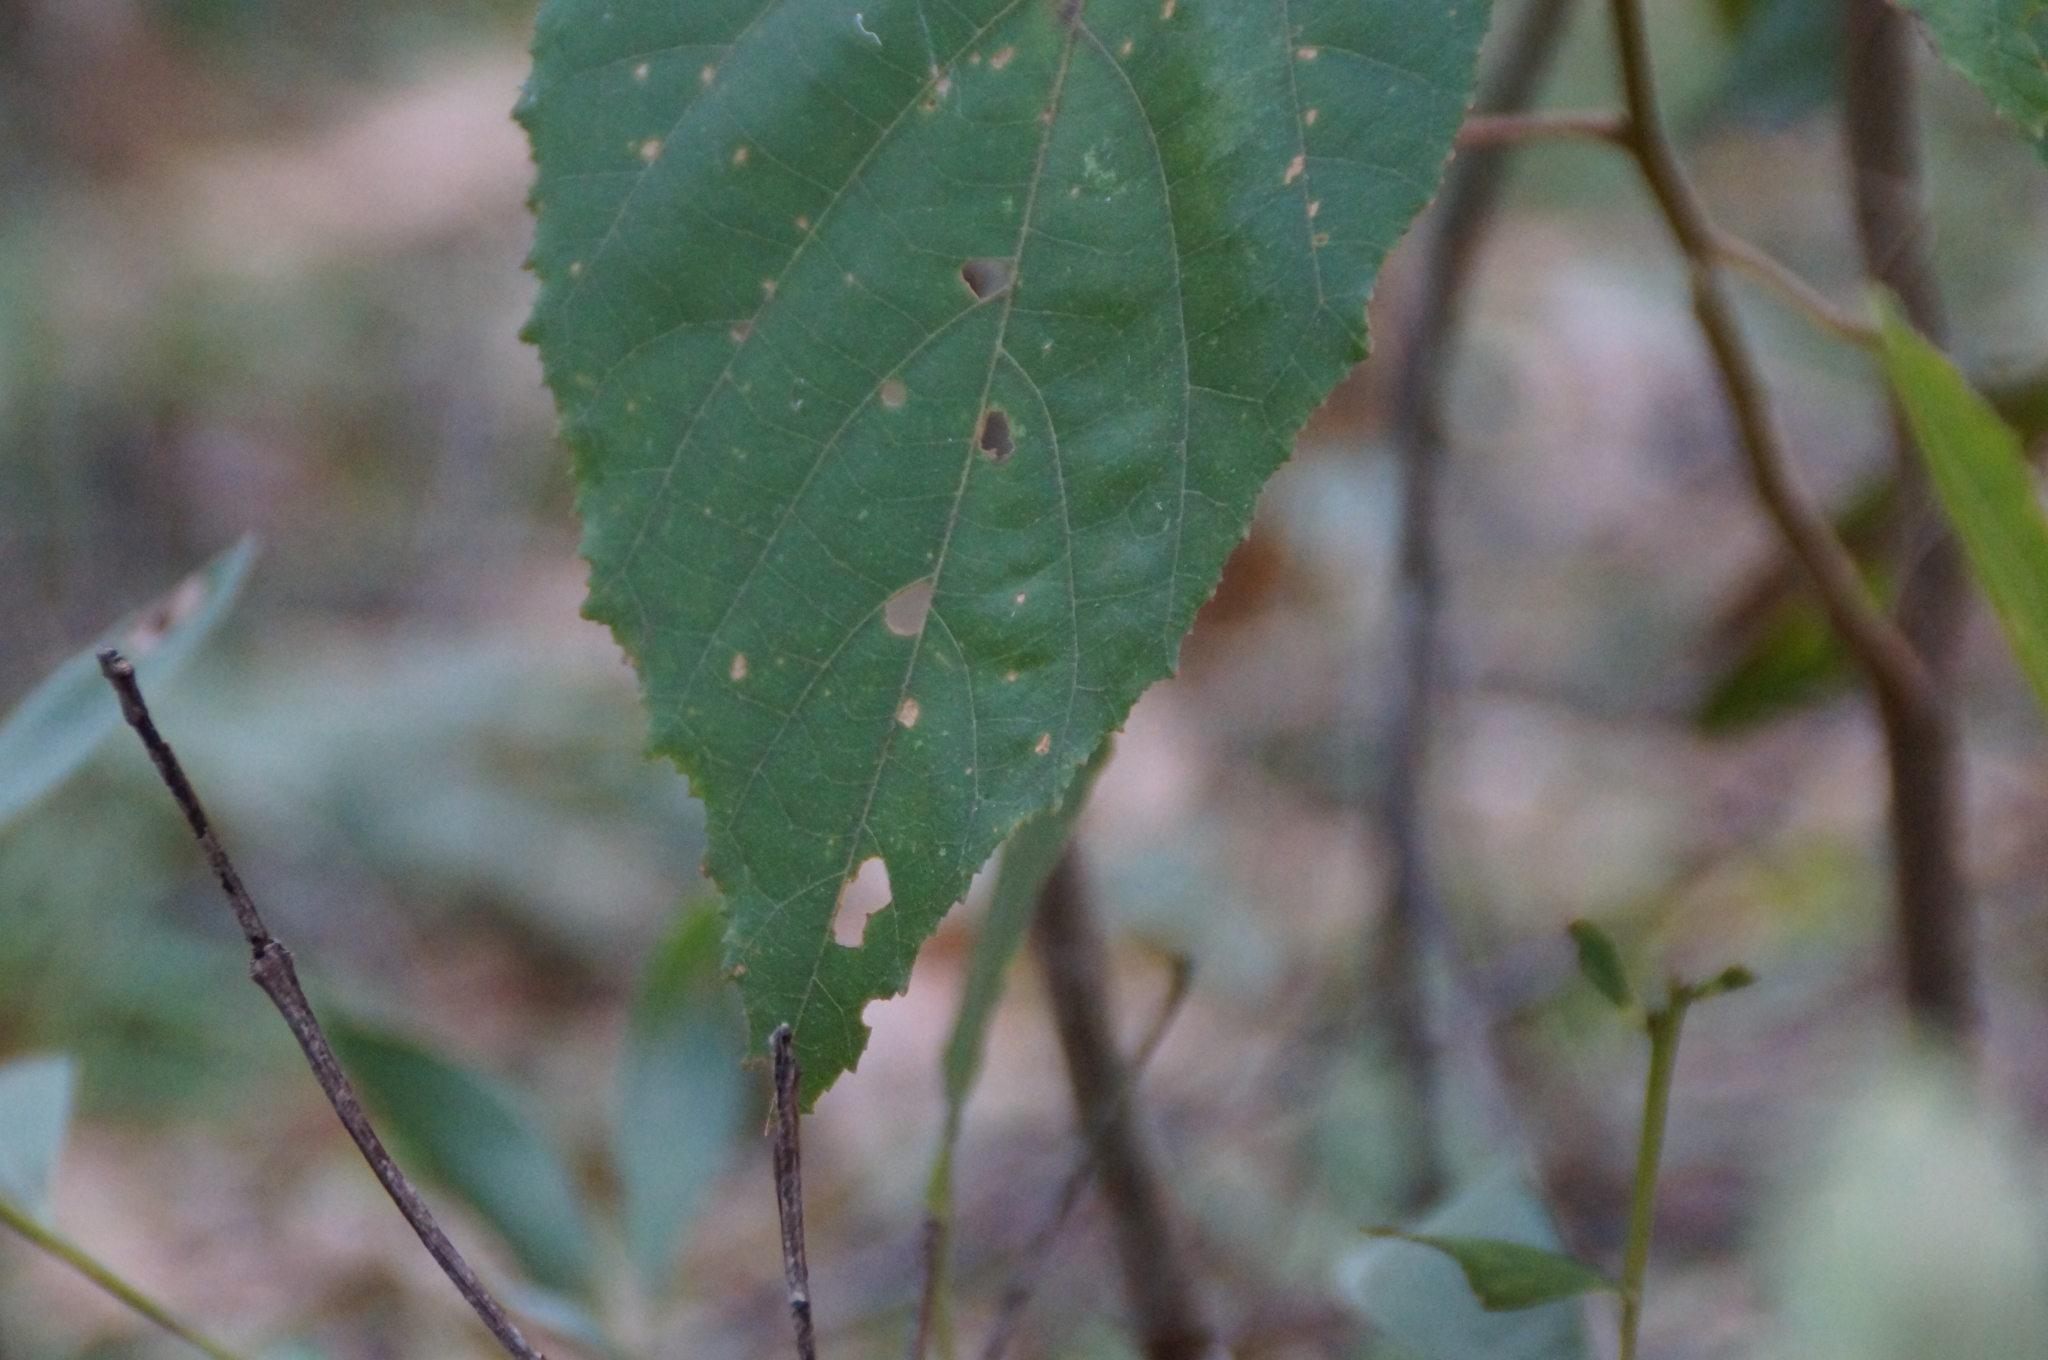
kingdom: Plantae
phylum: Tracheophyta
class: Magnoliopsida
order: Malvales
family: Malvaceae
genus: Commersonia
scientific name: Commersonia bartramia
